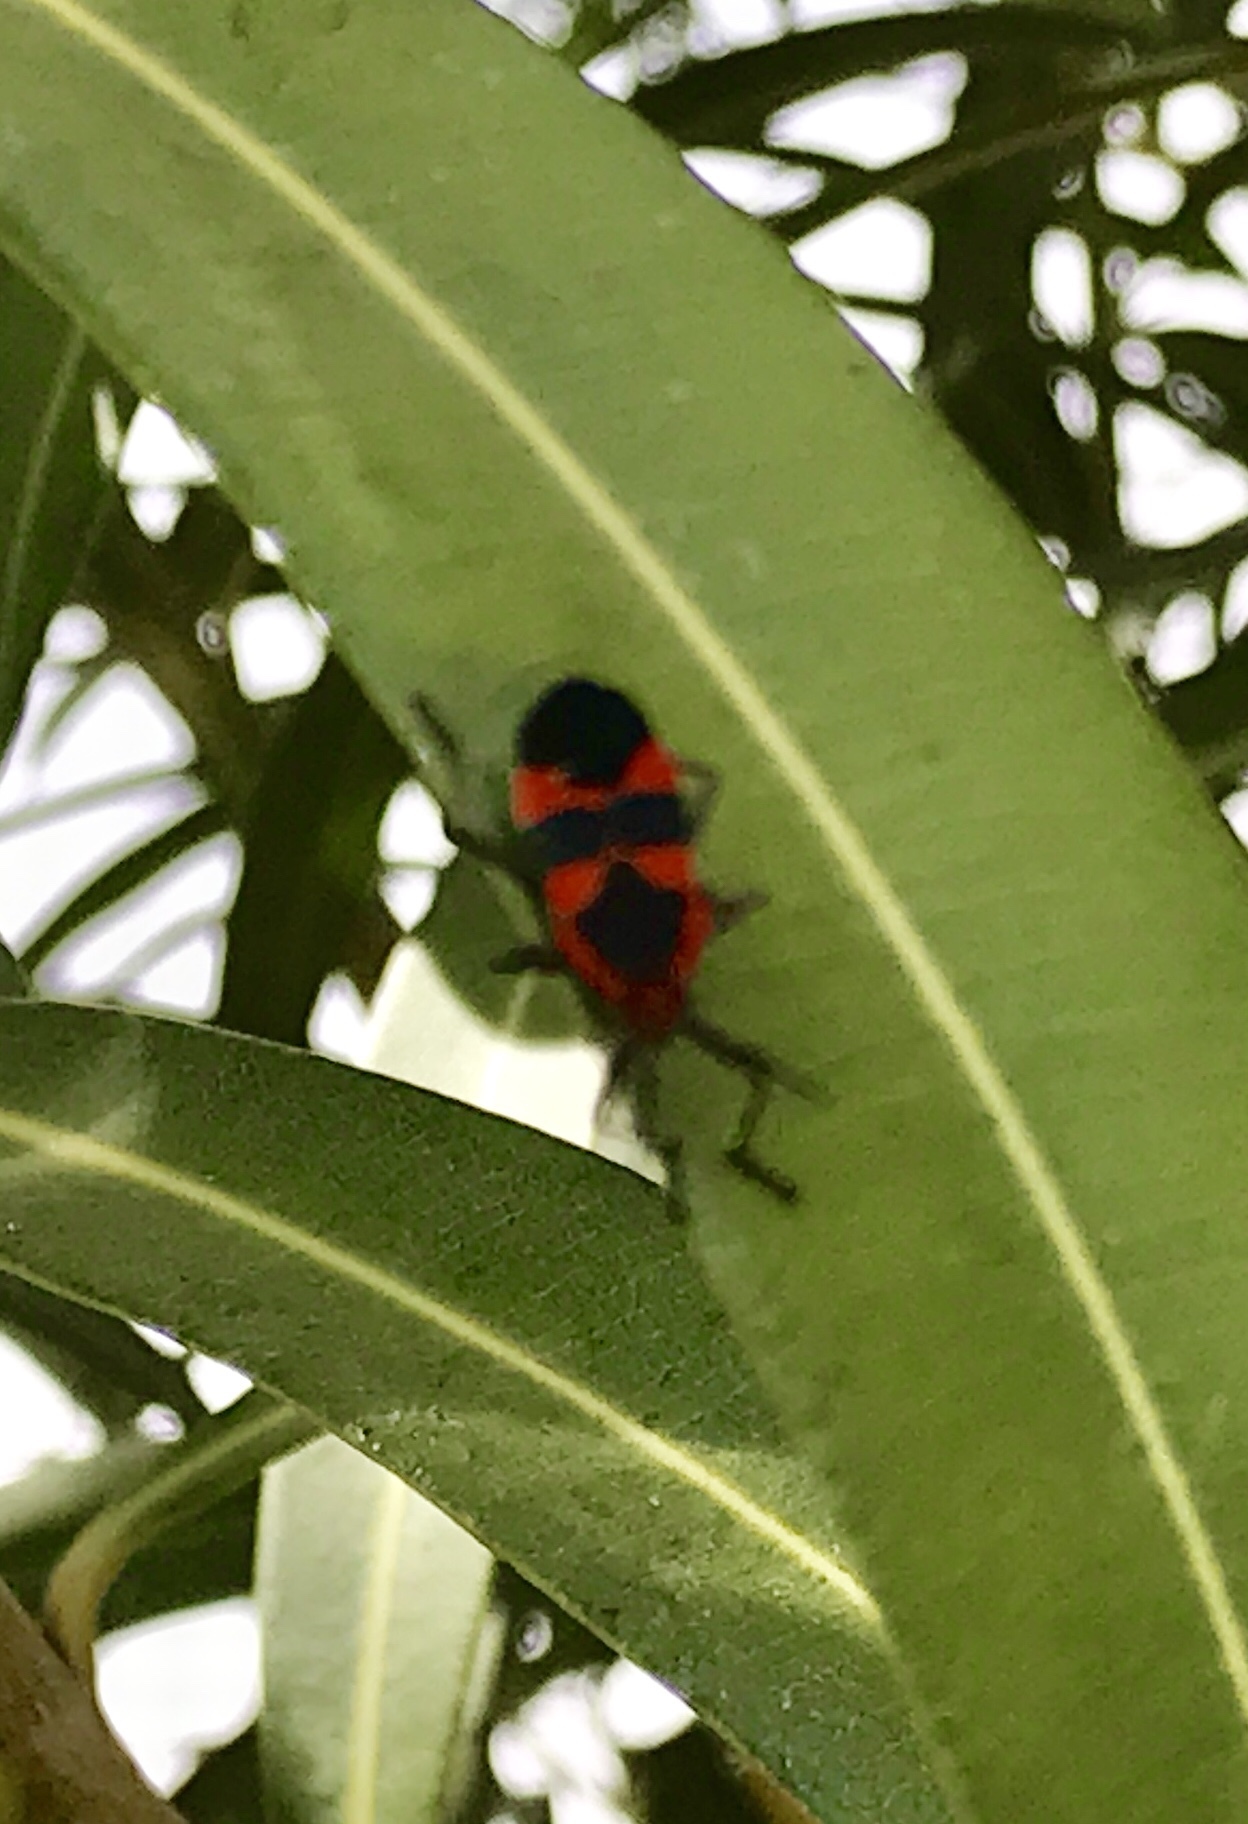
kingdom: Animalia
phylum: Arthropoda
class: Insecta
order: Hemiptera
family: Lygaeidae
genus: Oncopeltus
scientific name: Oncopeltus fasciatus
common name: Large milkweed bug
